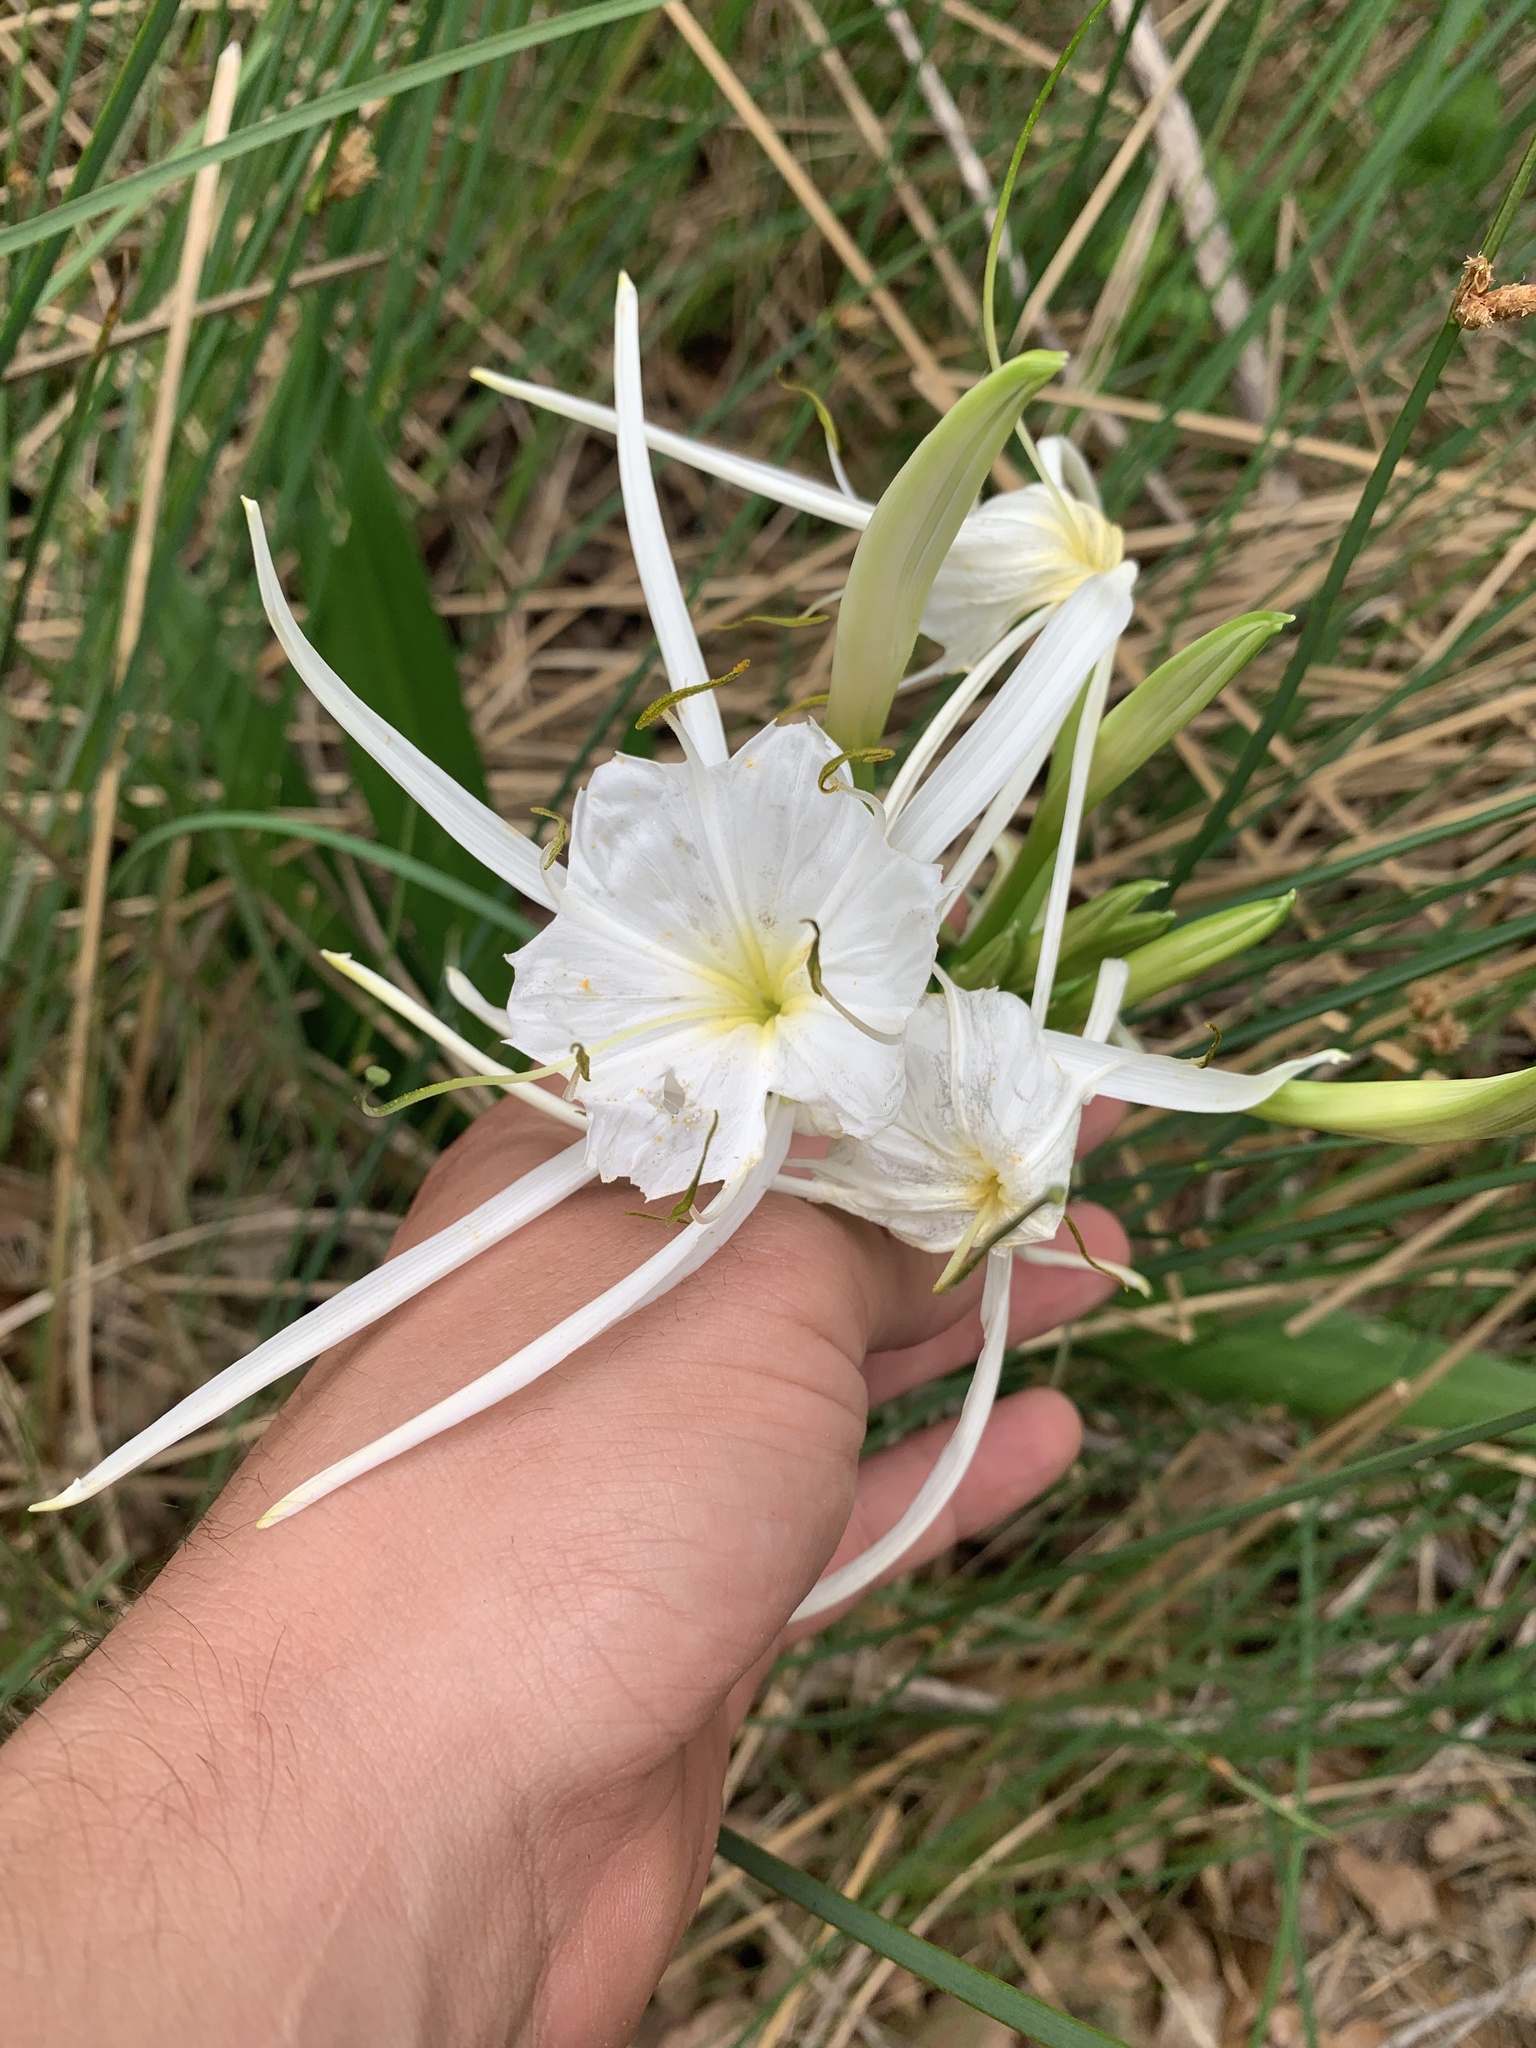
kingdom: Plantae
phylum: Tracheophyta
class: Liliopsida
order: Asparagales
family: Amaryllidaceae
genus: Hymenocallis
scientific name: Hymenocallis liriosme
